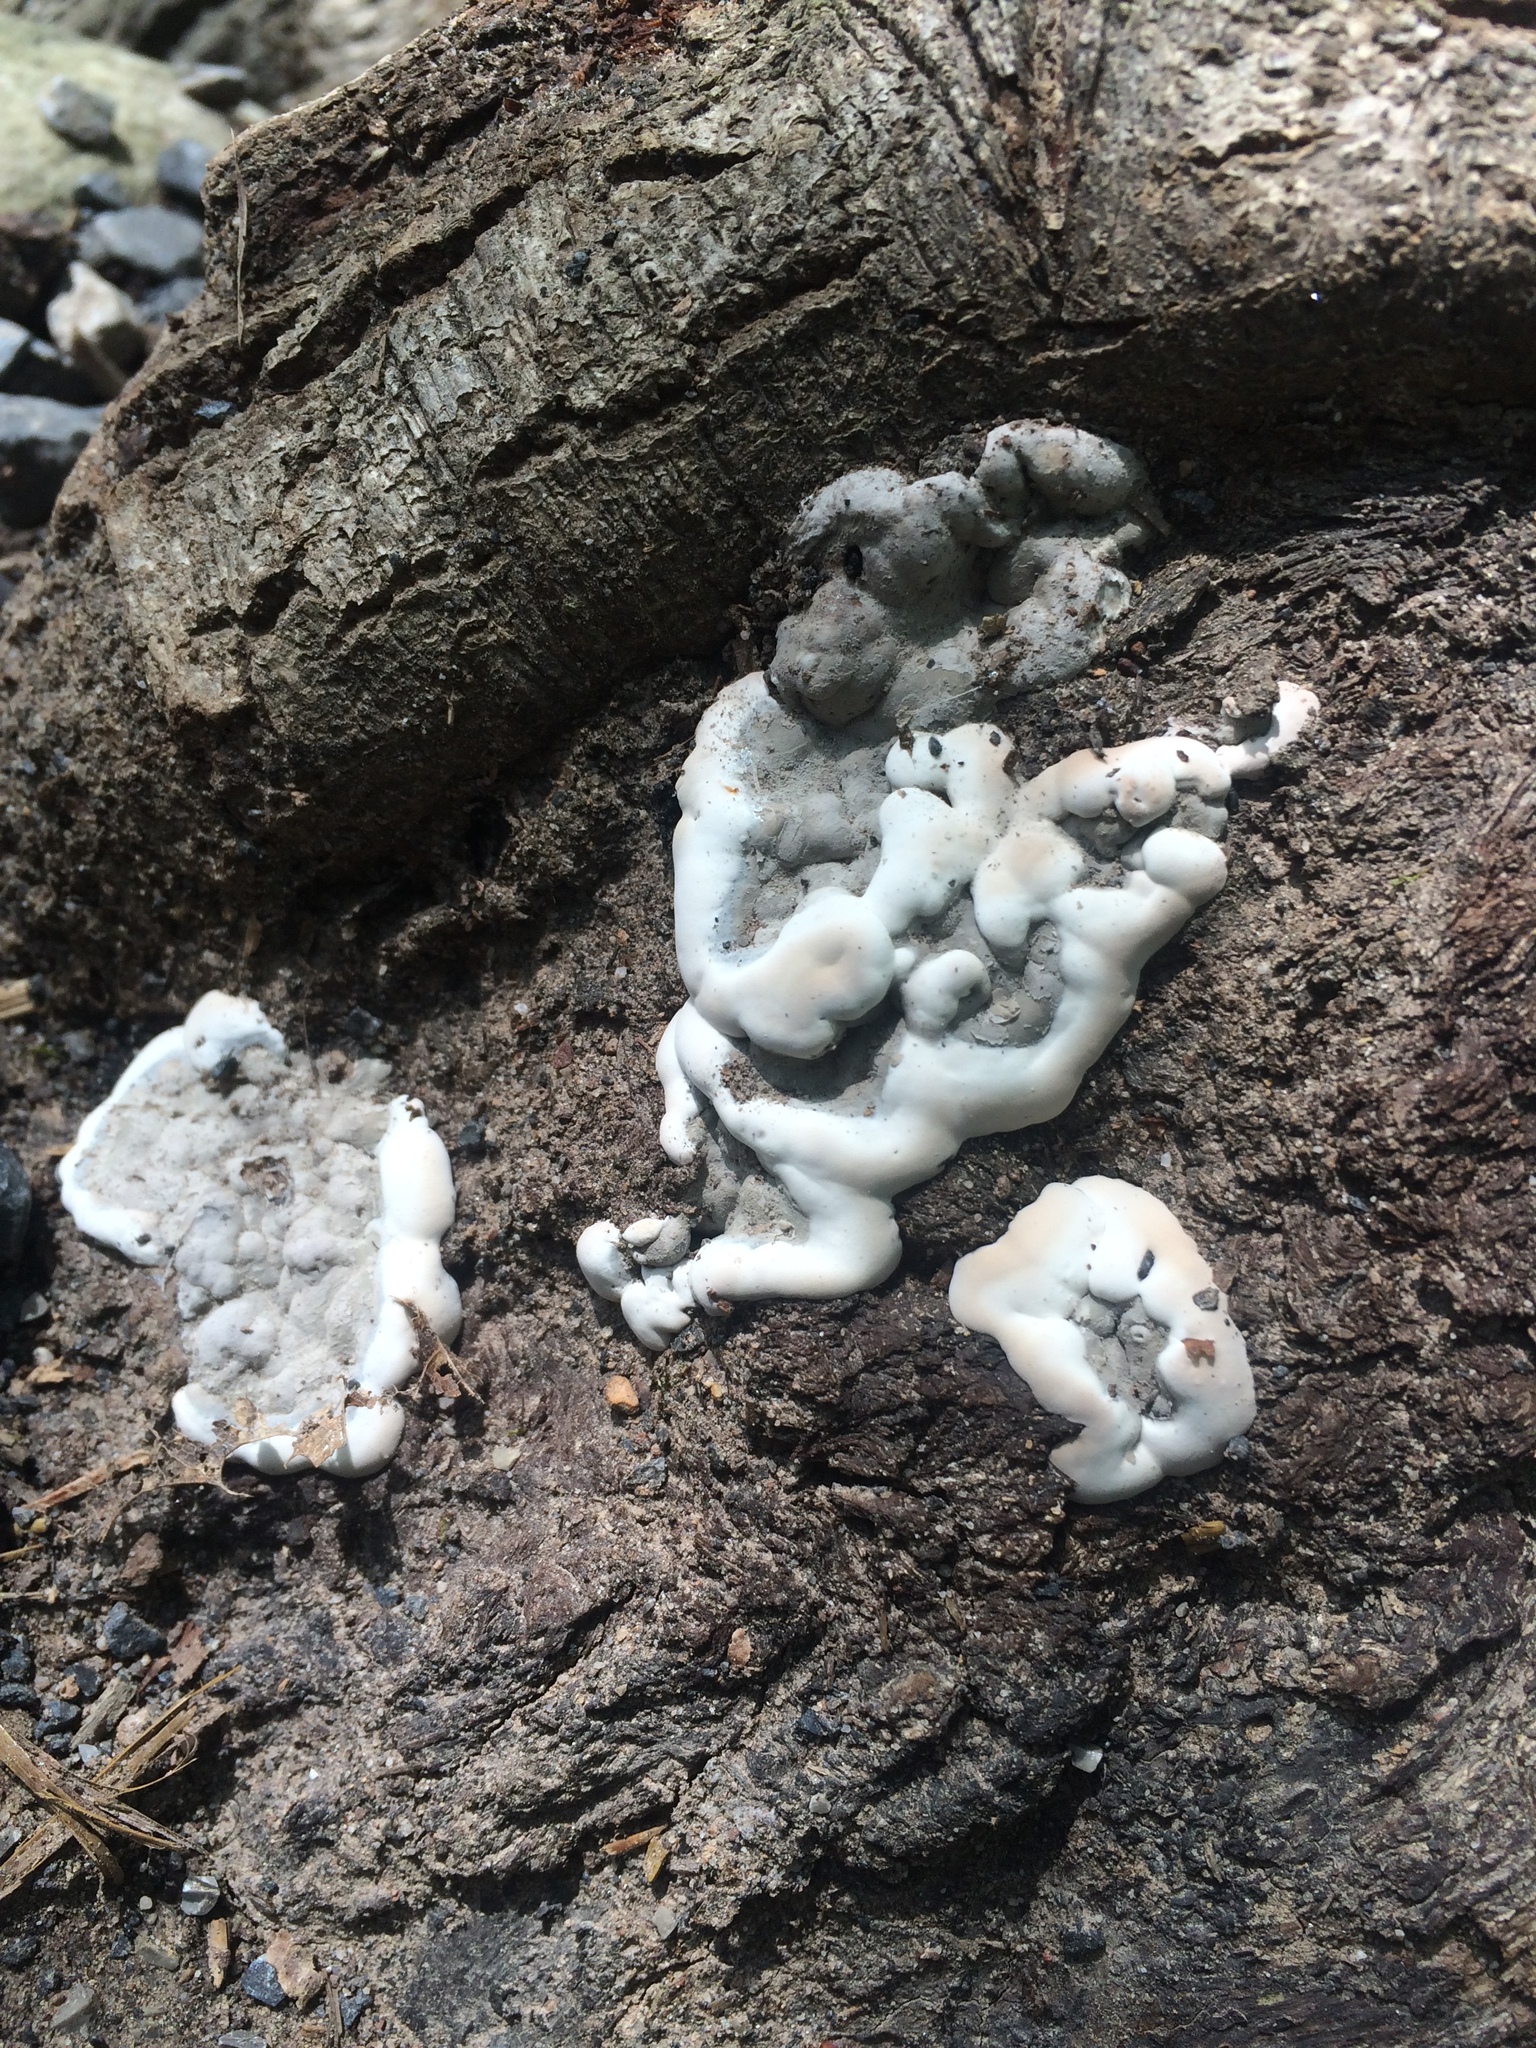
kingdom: Fungi
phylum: Ascomycota
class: Sordariomycetes
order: Xylariales
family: Xylariaceae
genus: Kretzschmaria
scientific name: Kretzschmaria deusta
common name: Brittle cinder
